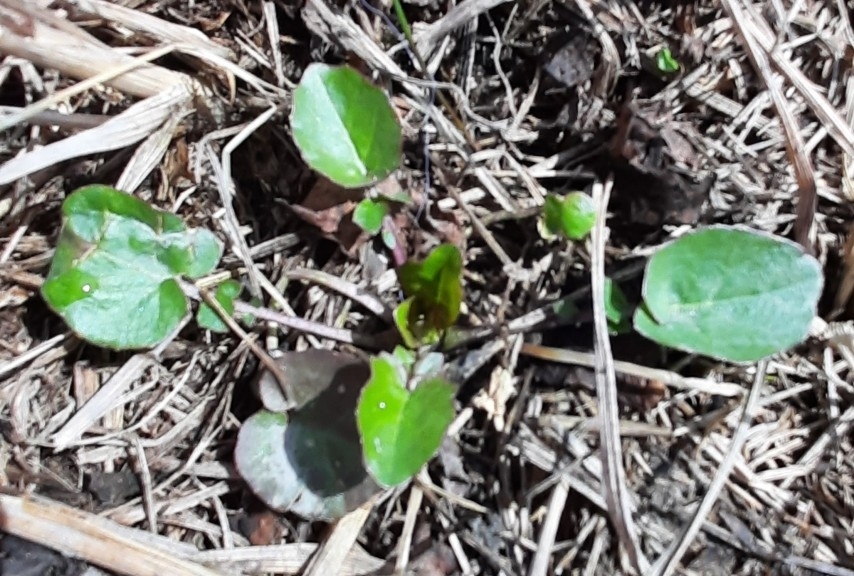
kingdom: Plantae
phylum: Tracheophyta
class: Magnoliopsida
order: Brassicales
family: Brassicaceae
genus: Barbarea
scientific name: Barbarea vulgaris
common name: Cressy-greens
